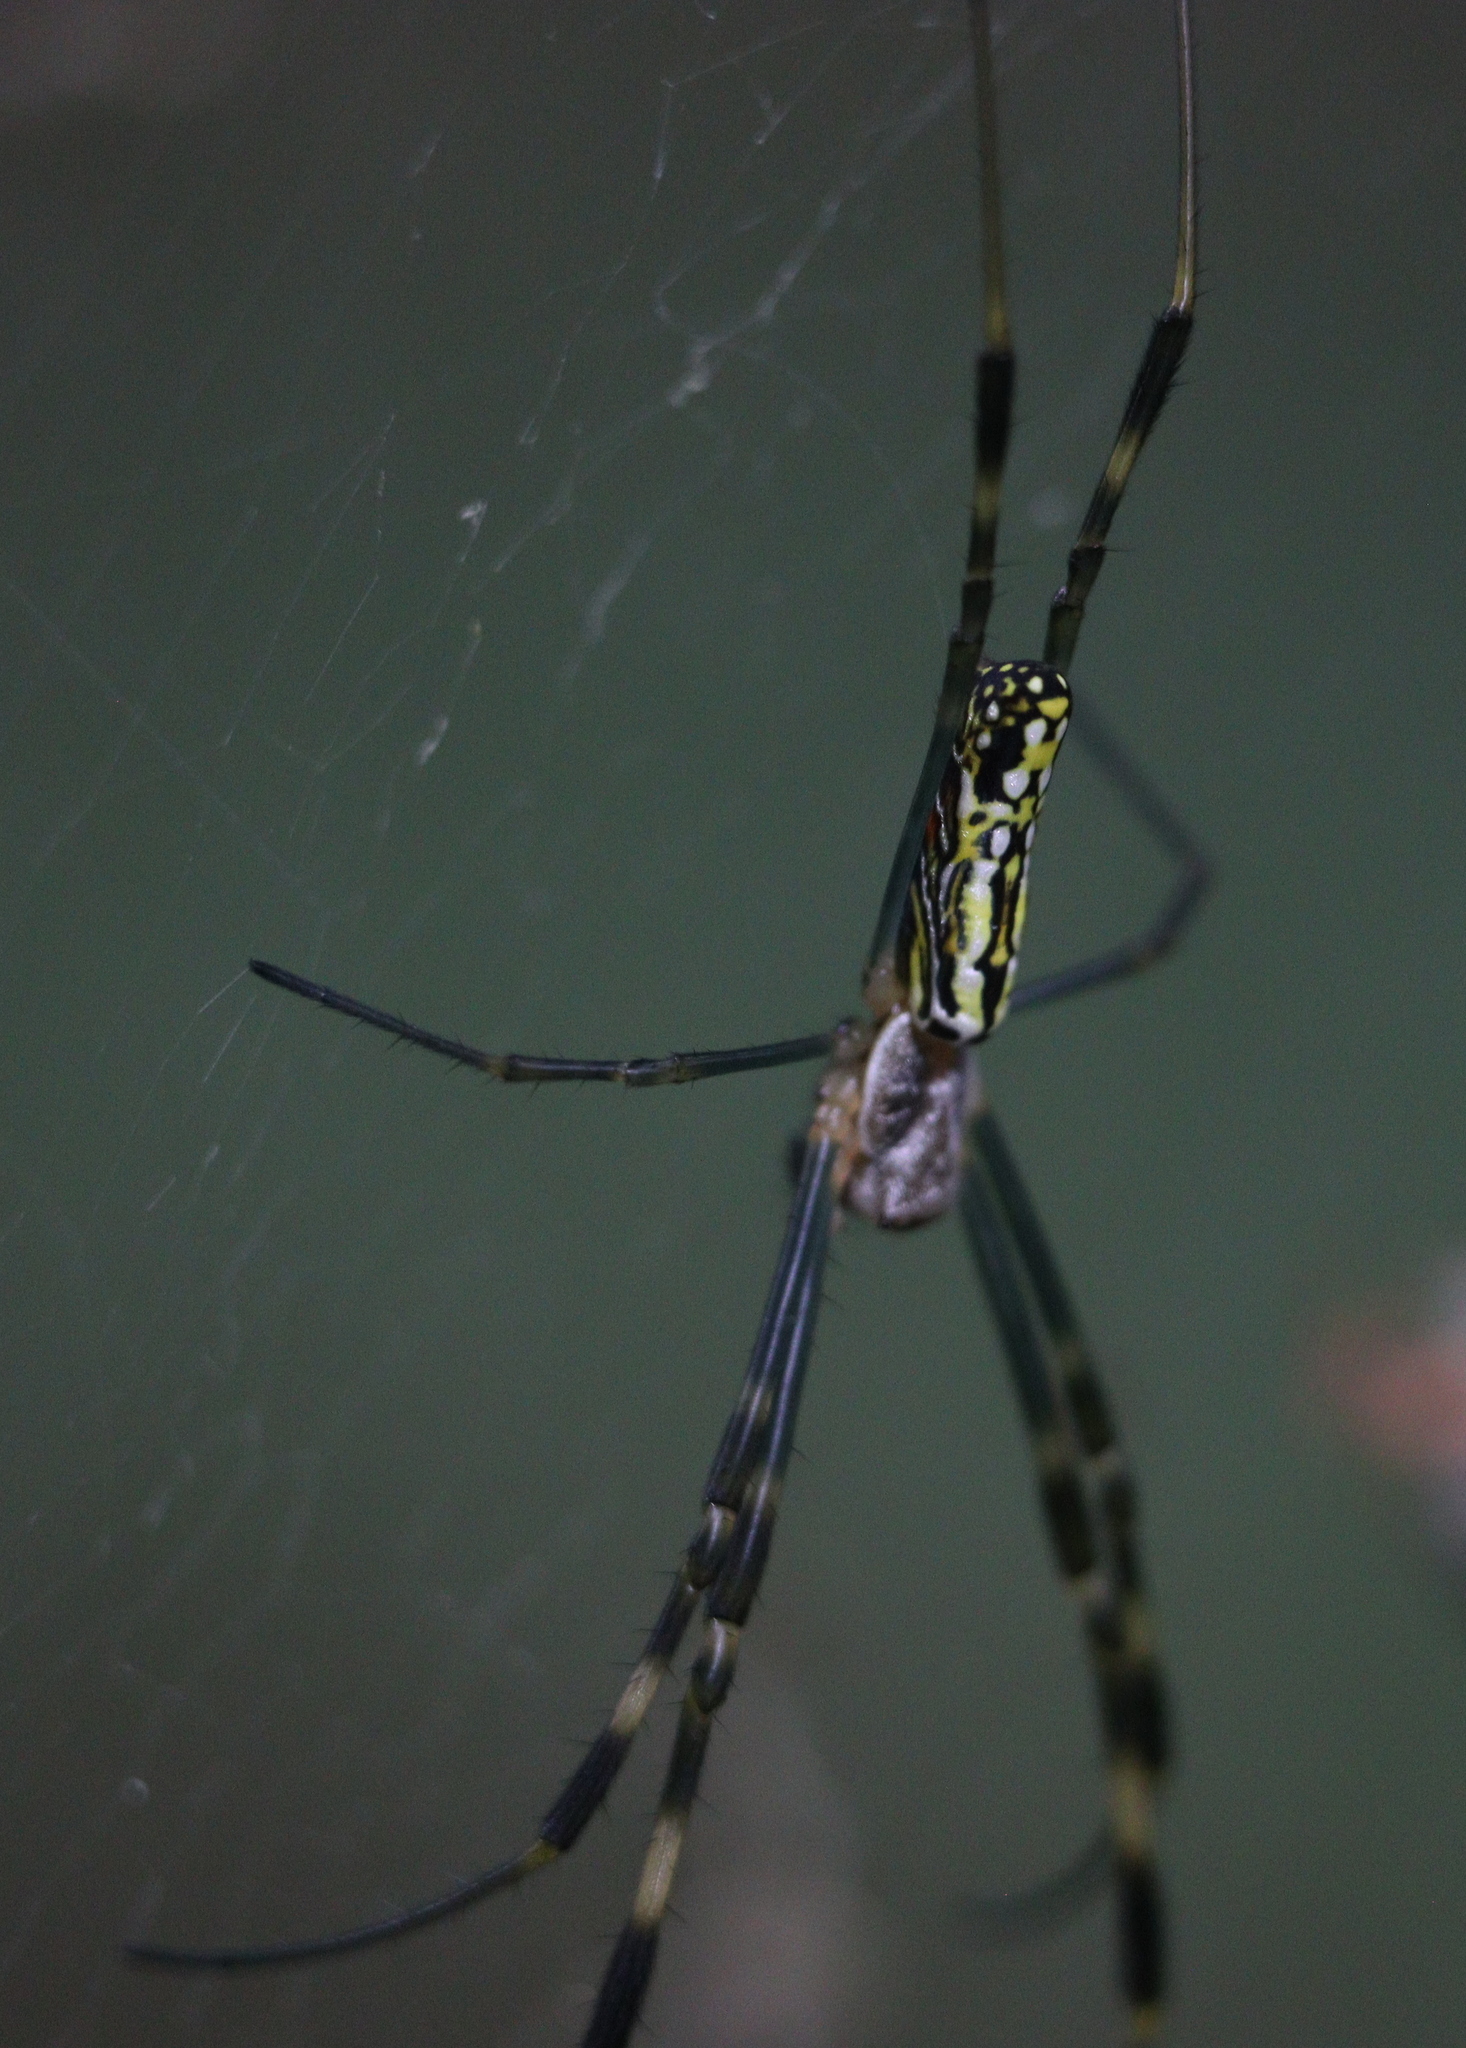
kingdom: Animalia
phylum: Arthropoda
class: Arachnida
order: Araneae
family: Araneidae
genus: Trichonephila
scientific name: Trichonephila clavata
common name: Jorō spider
